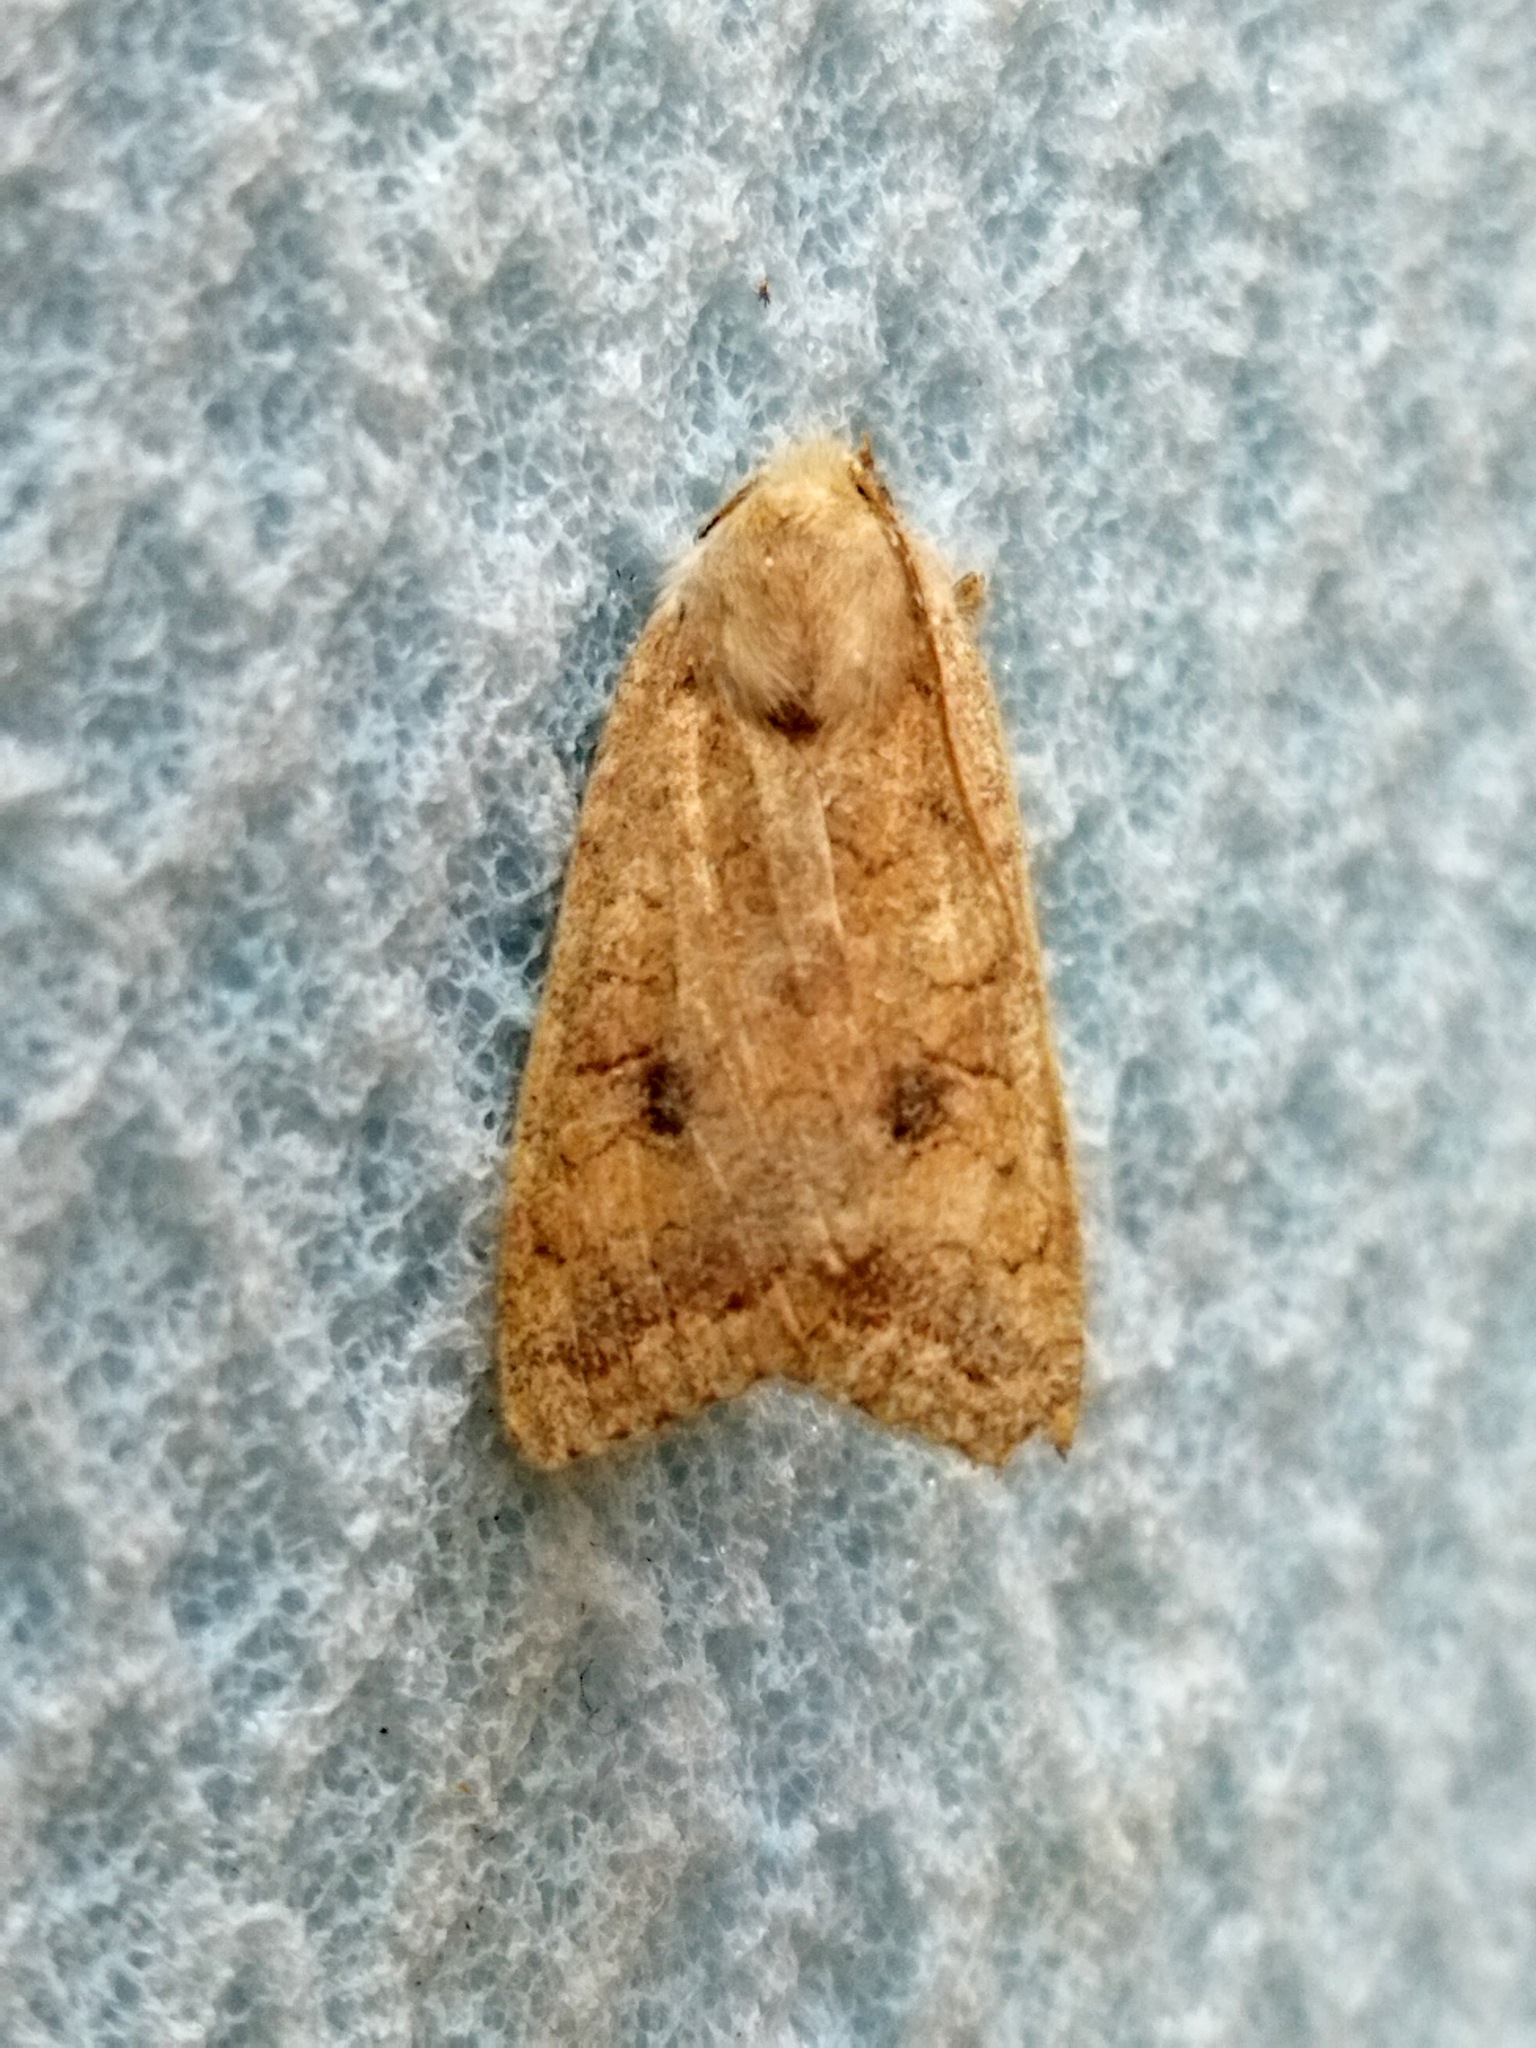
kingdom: Animalia
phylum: Arthropoda
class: Insecta
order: Lepidoptera
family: Noctuidae
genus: Sunira
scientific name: Sunira circellaris
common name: Brick
